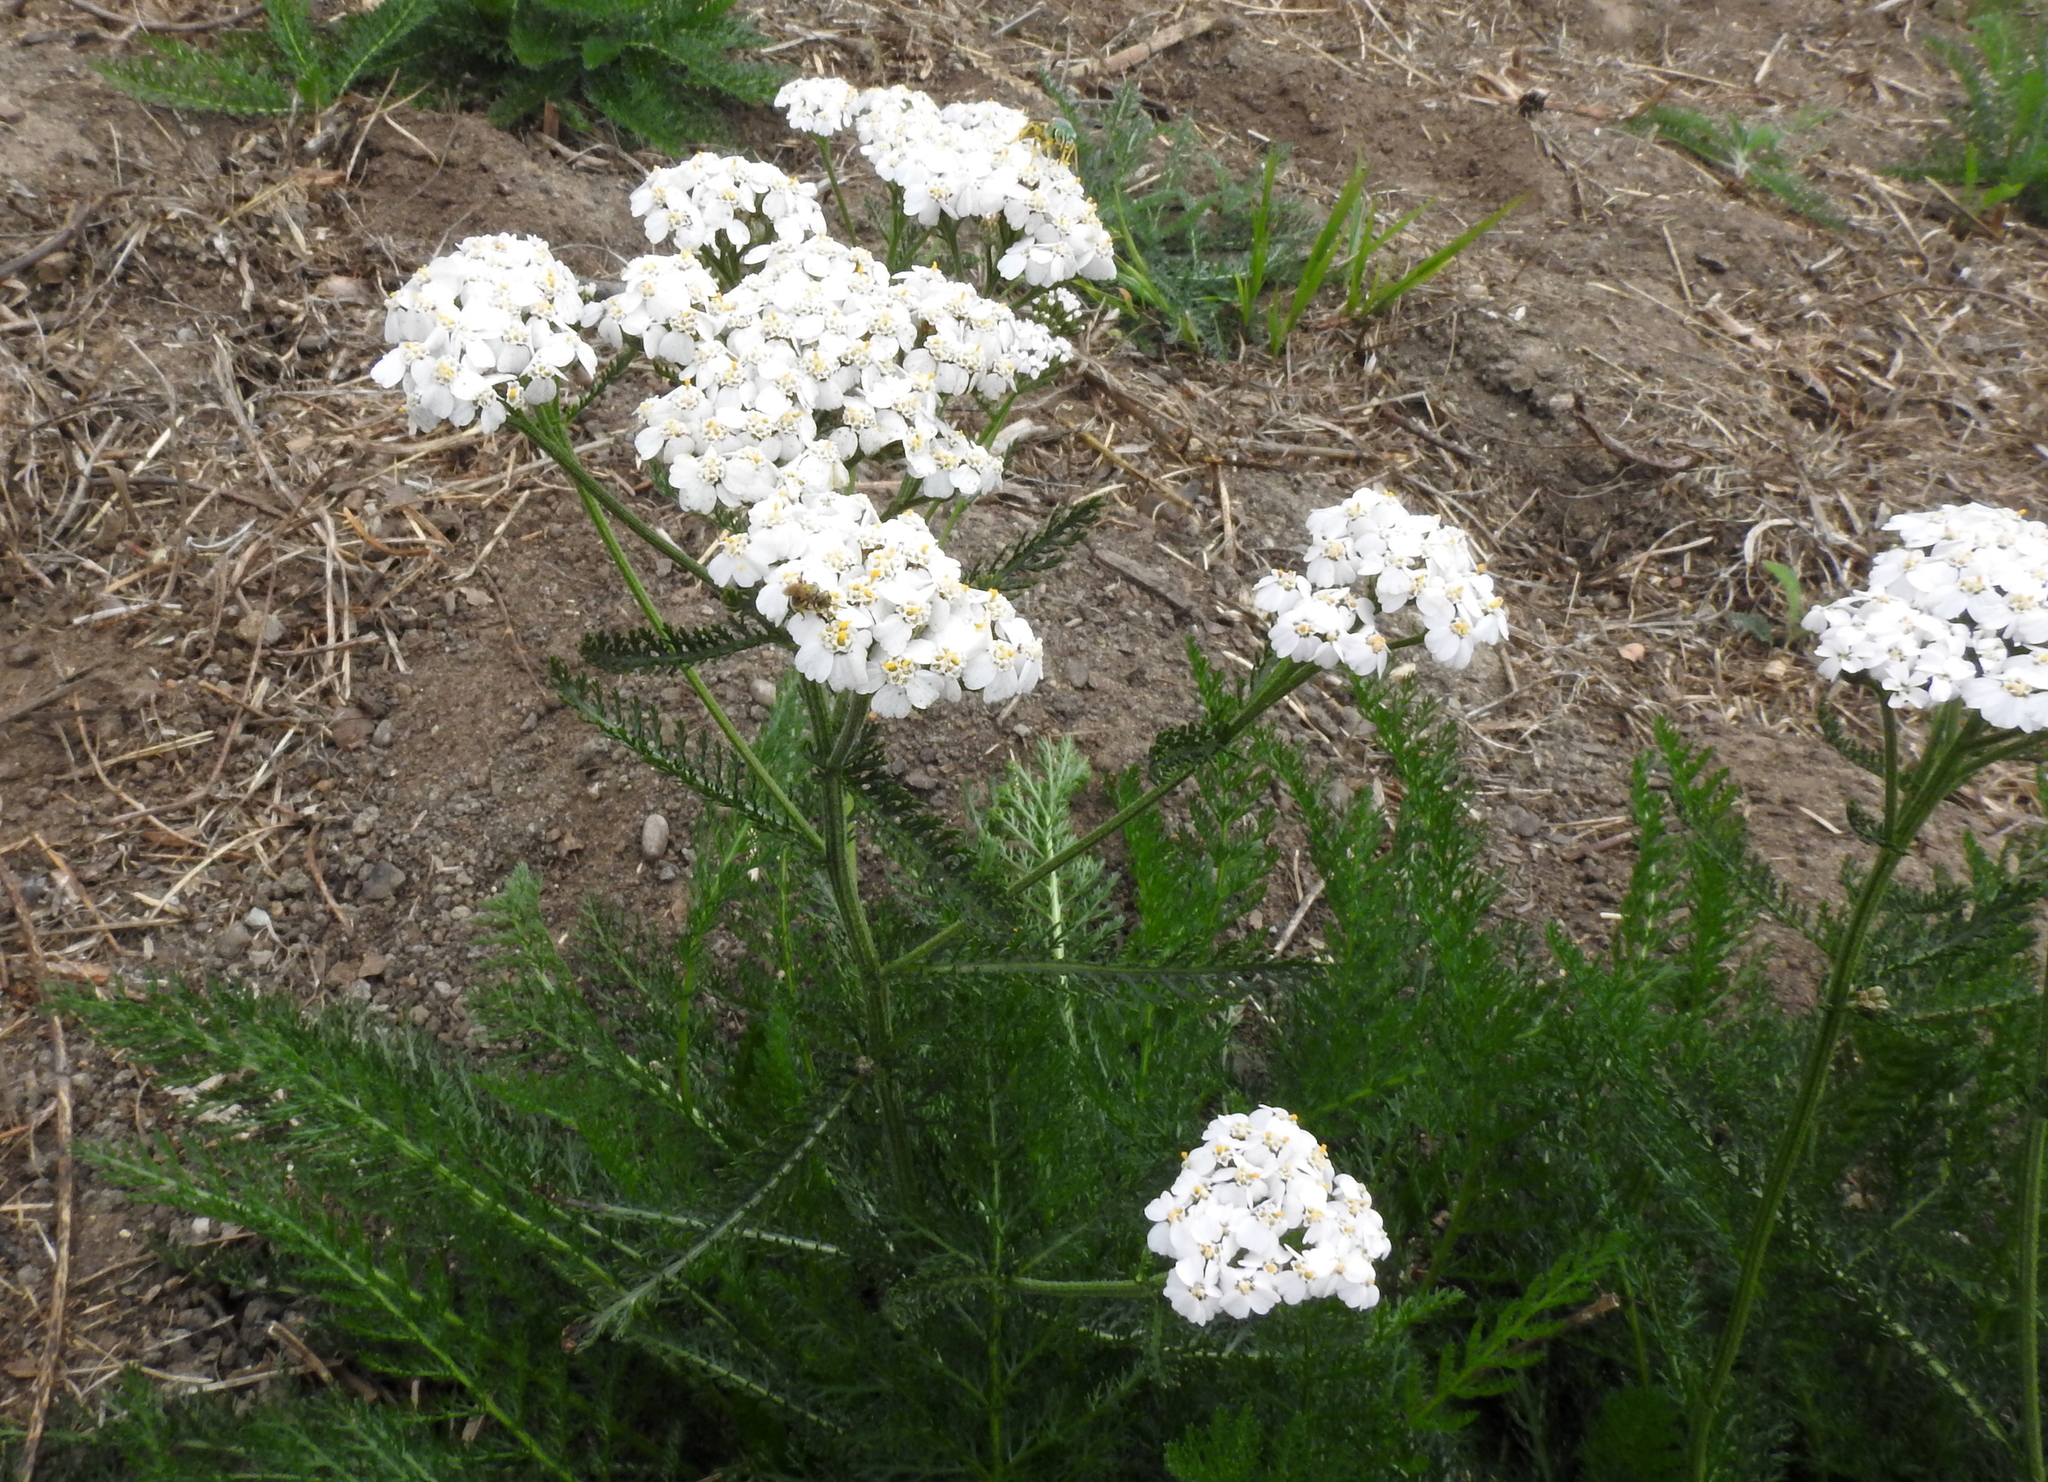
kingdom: Plantae
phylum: Tracheophyta
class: Magnoliopsida
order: Asterales
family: Asteraceae
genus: Achillea
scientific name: Achillea millefolium
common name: Yarrow
